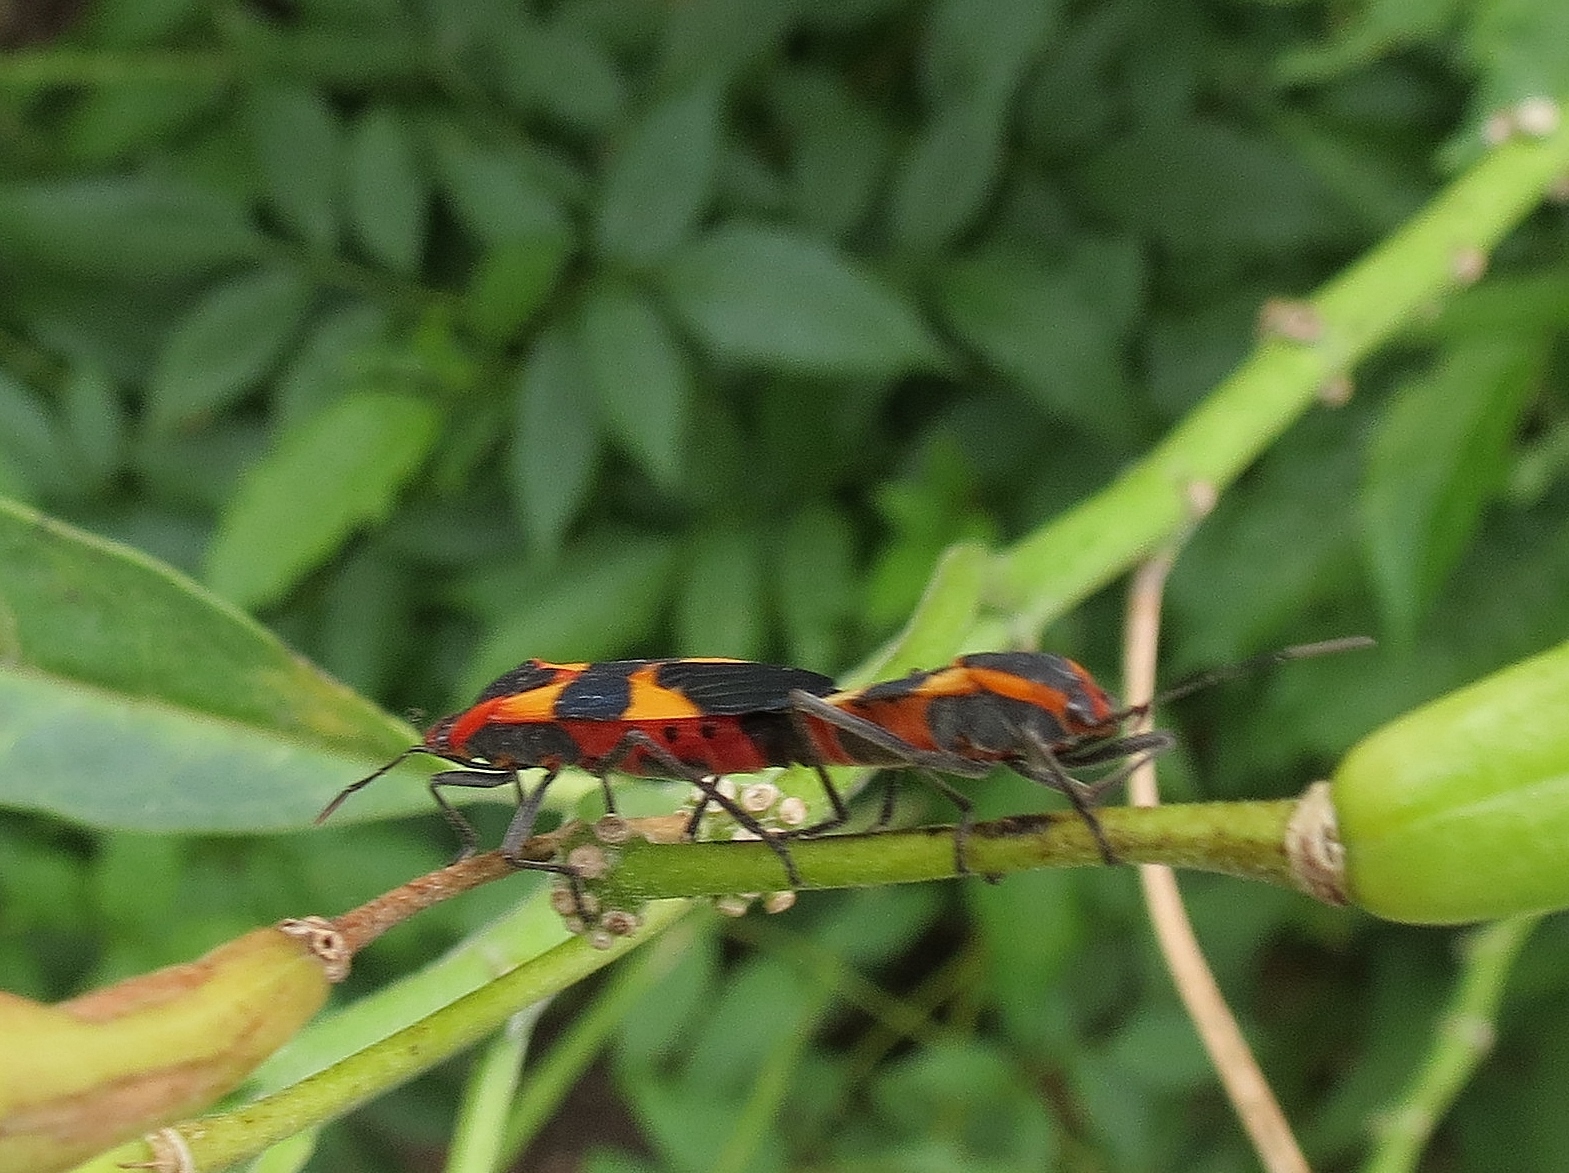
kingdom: Animalia
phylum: Arthropoda
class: Insecta
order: Hemiptera
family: Lygaeidae
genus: Oncopeltus
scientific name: Oncopeltus fasciatus
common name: Large milkweed bug
